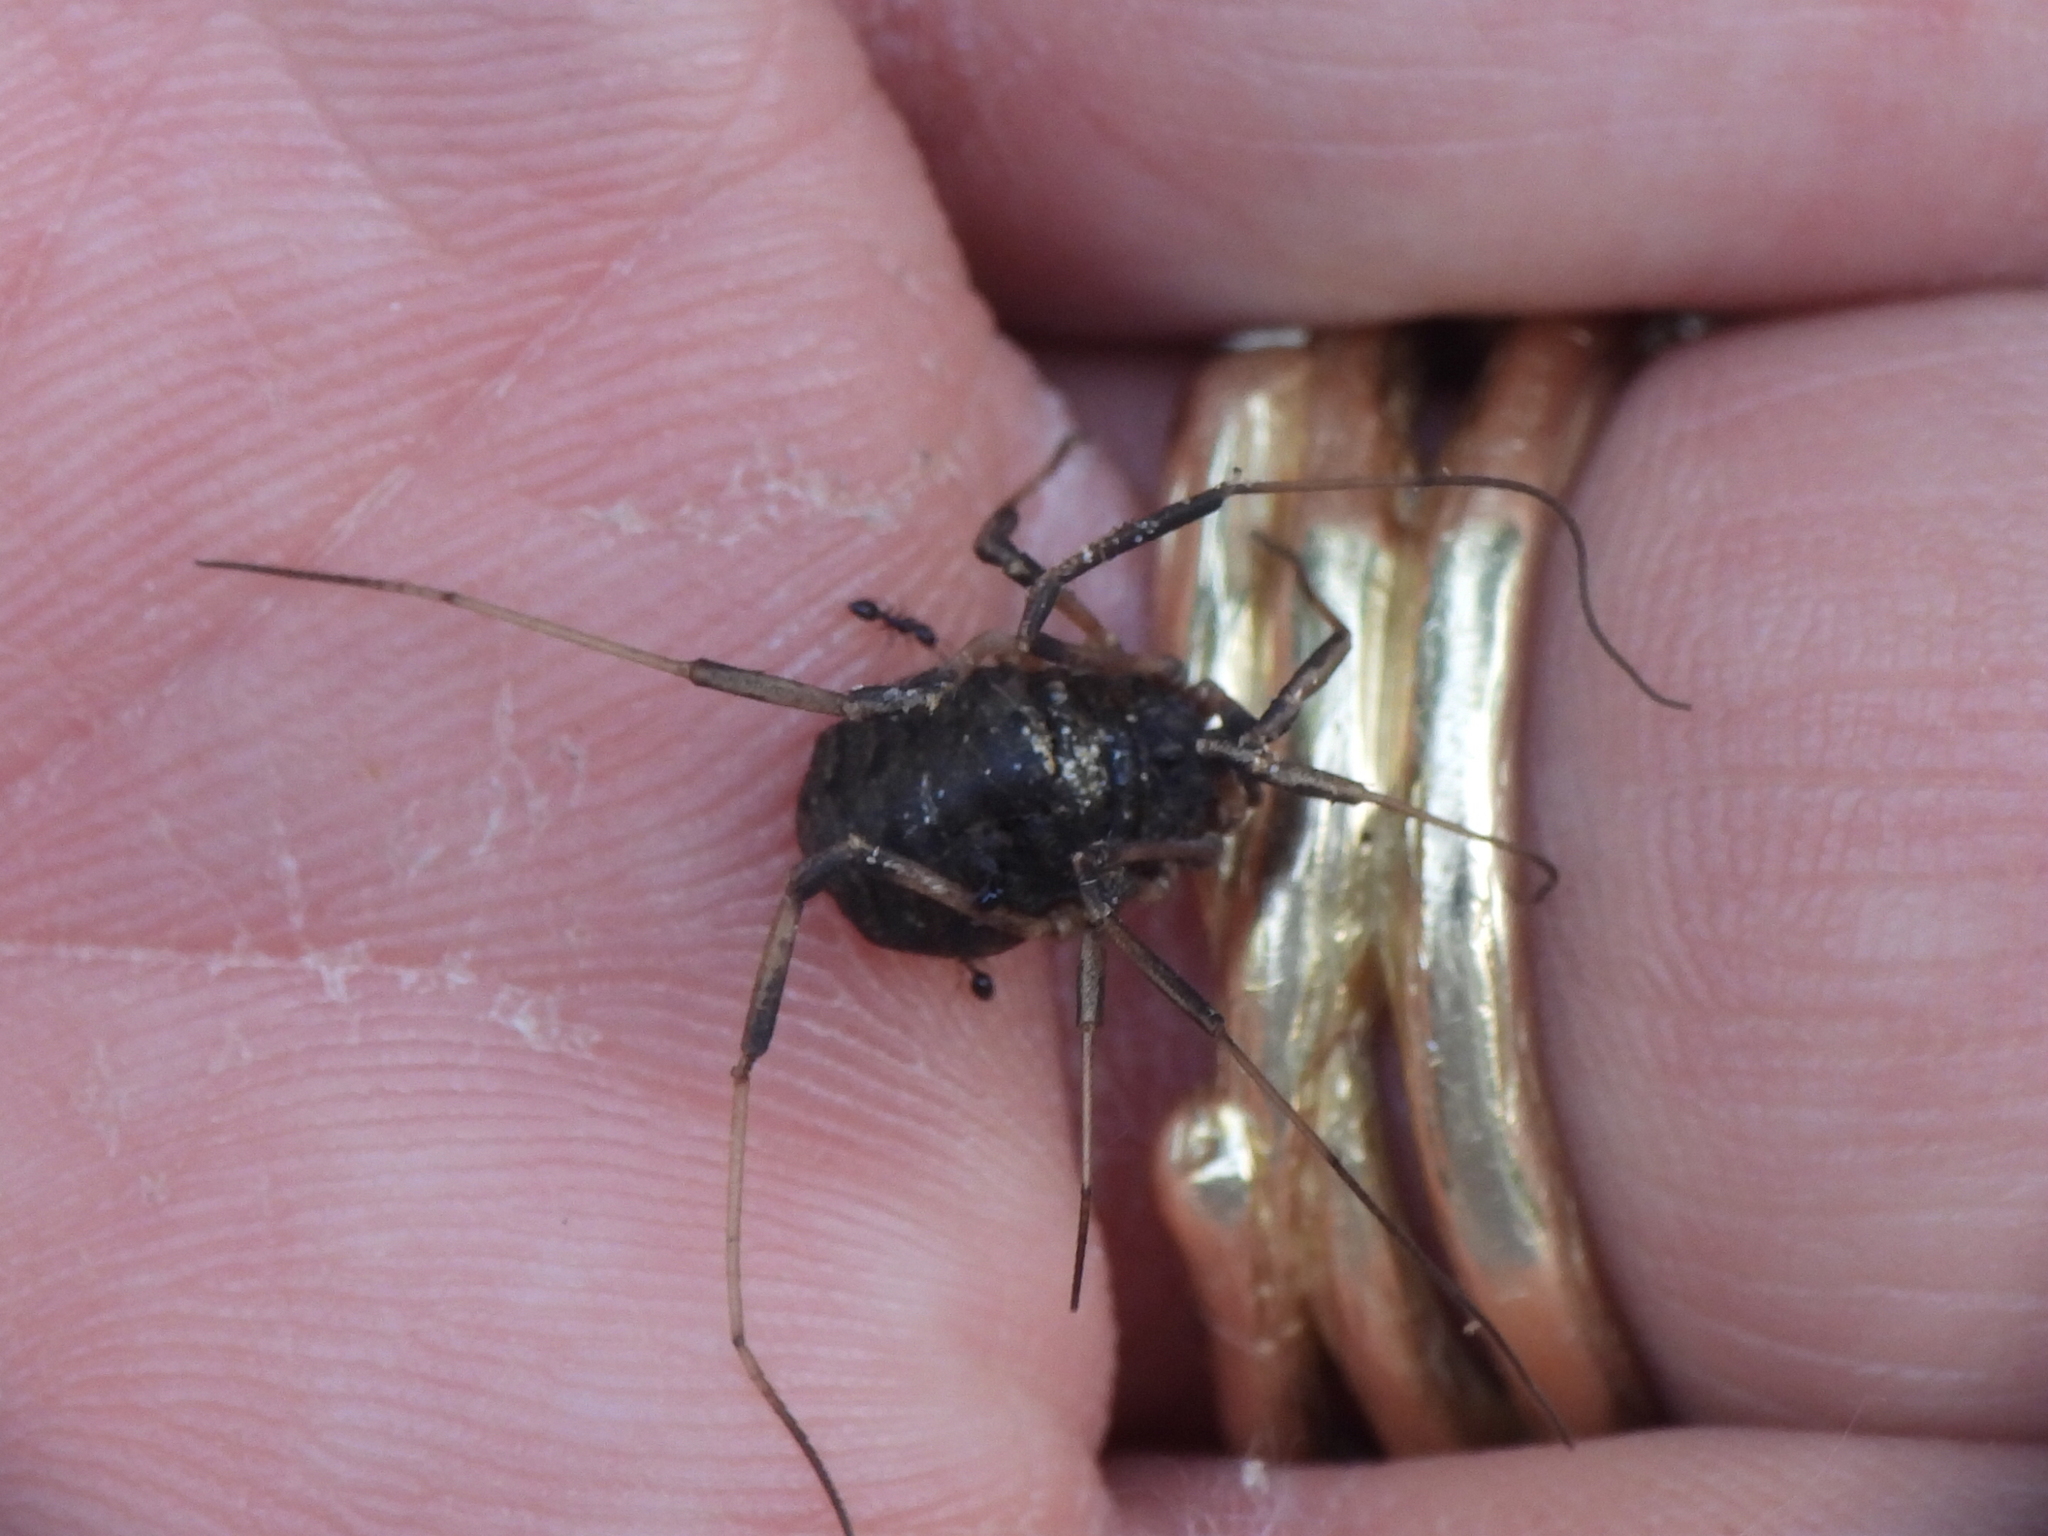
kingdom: Animalia
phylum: Arthropoda
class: Arachnida
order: Opiliones
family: Sclerosomatidae
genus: Eumesosoma
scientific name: Eumesosoma roeweri
